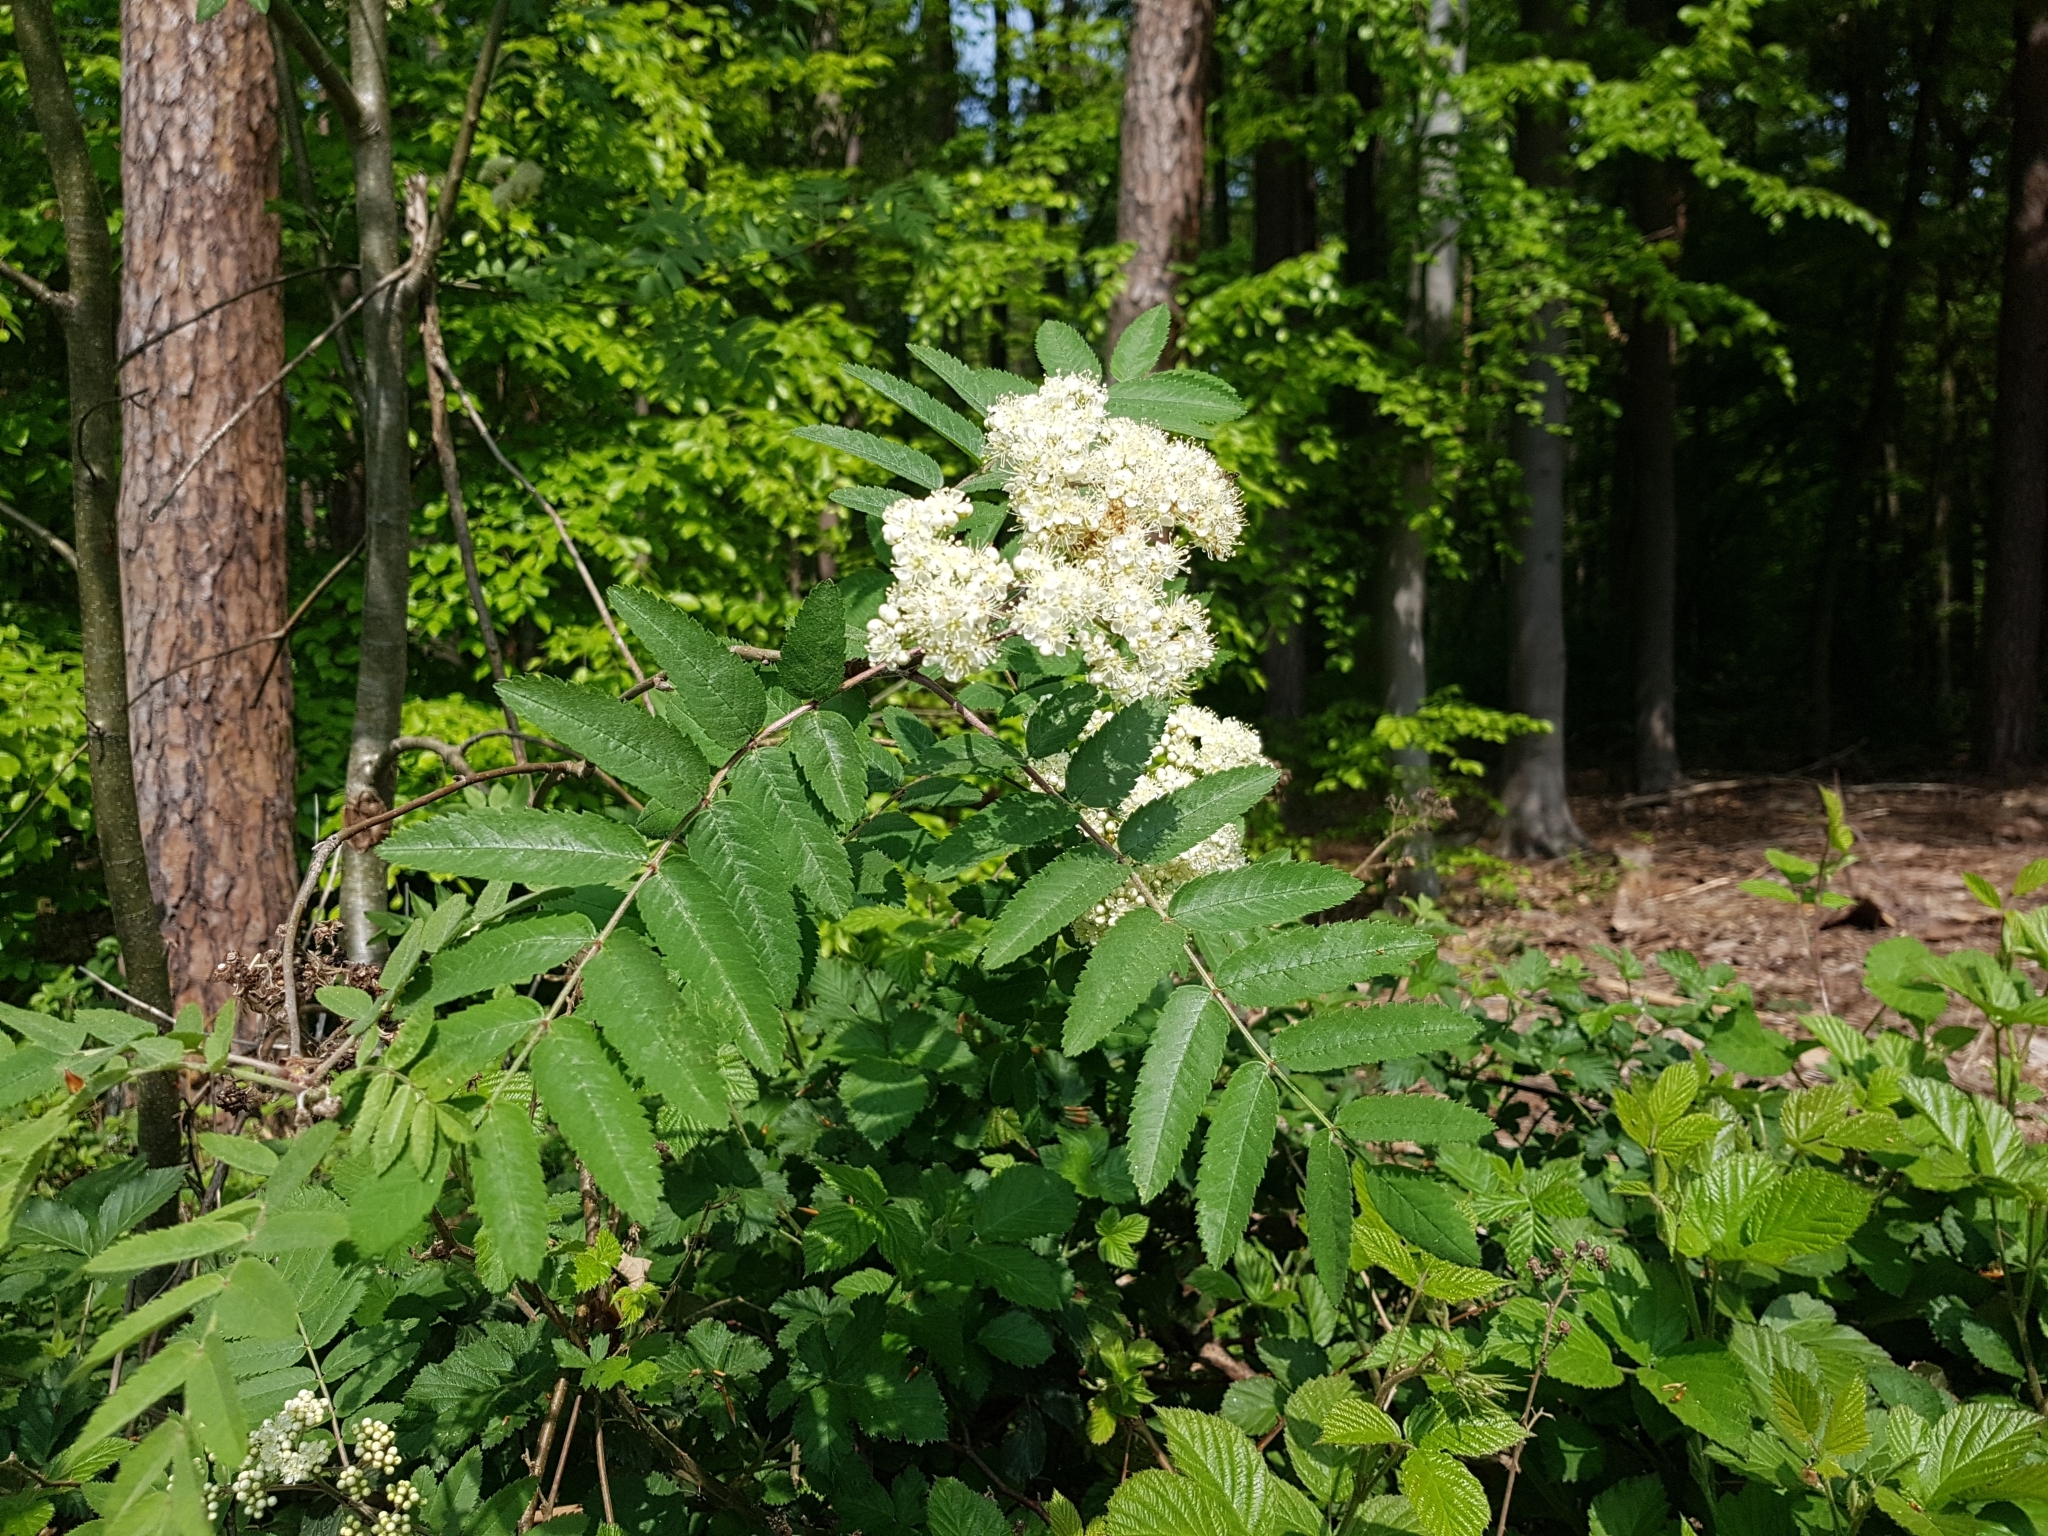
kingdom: Plantae
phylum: Tracheophyta
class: Magnoliopsida
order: Rosales
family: Rosaceae
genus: Sorbus
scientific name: Sorbus aucuparia
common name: Rowan
